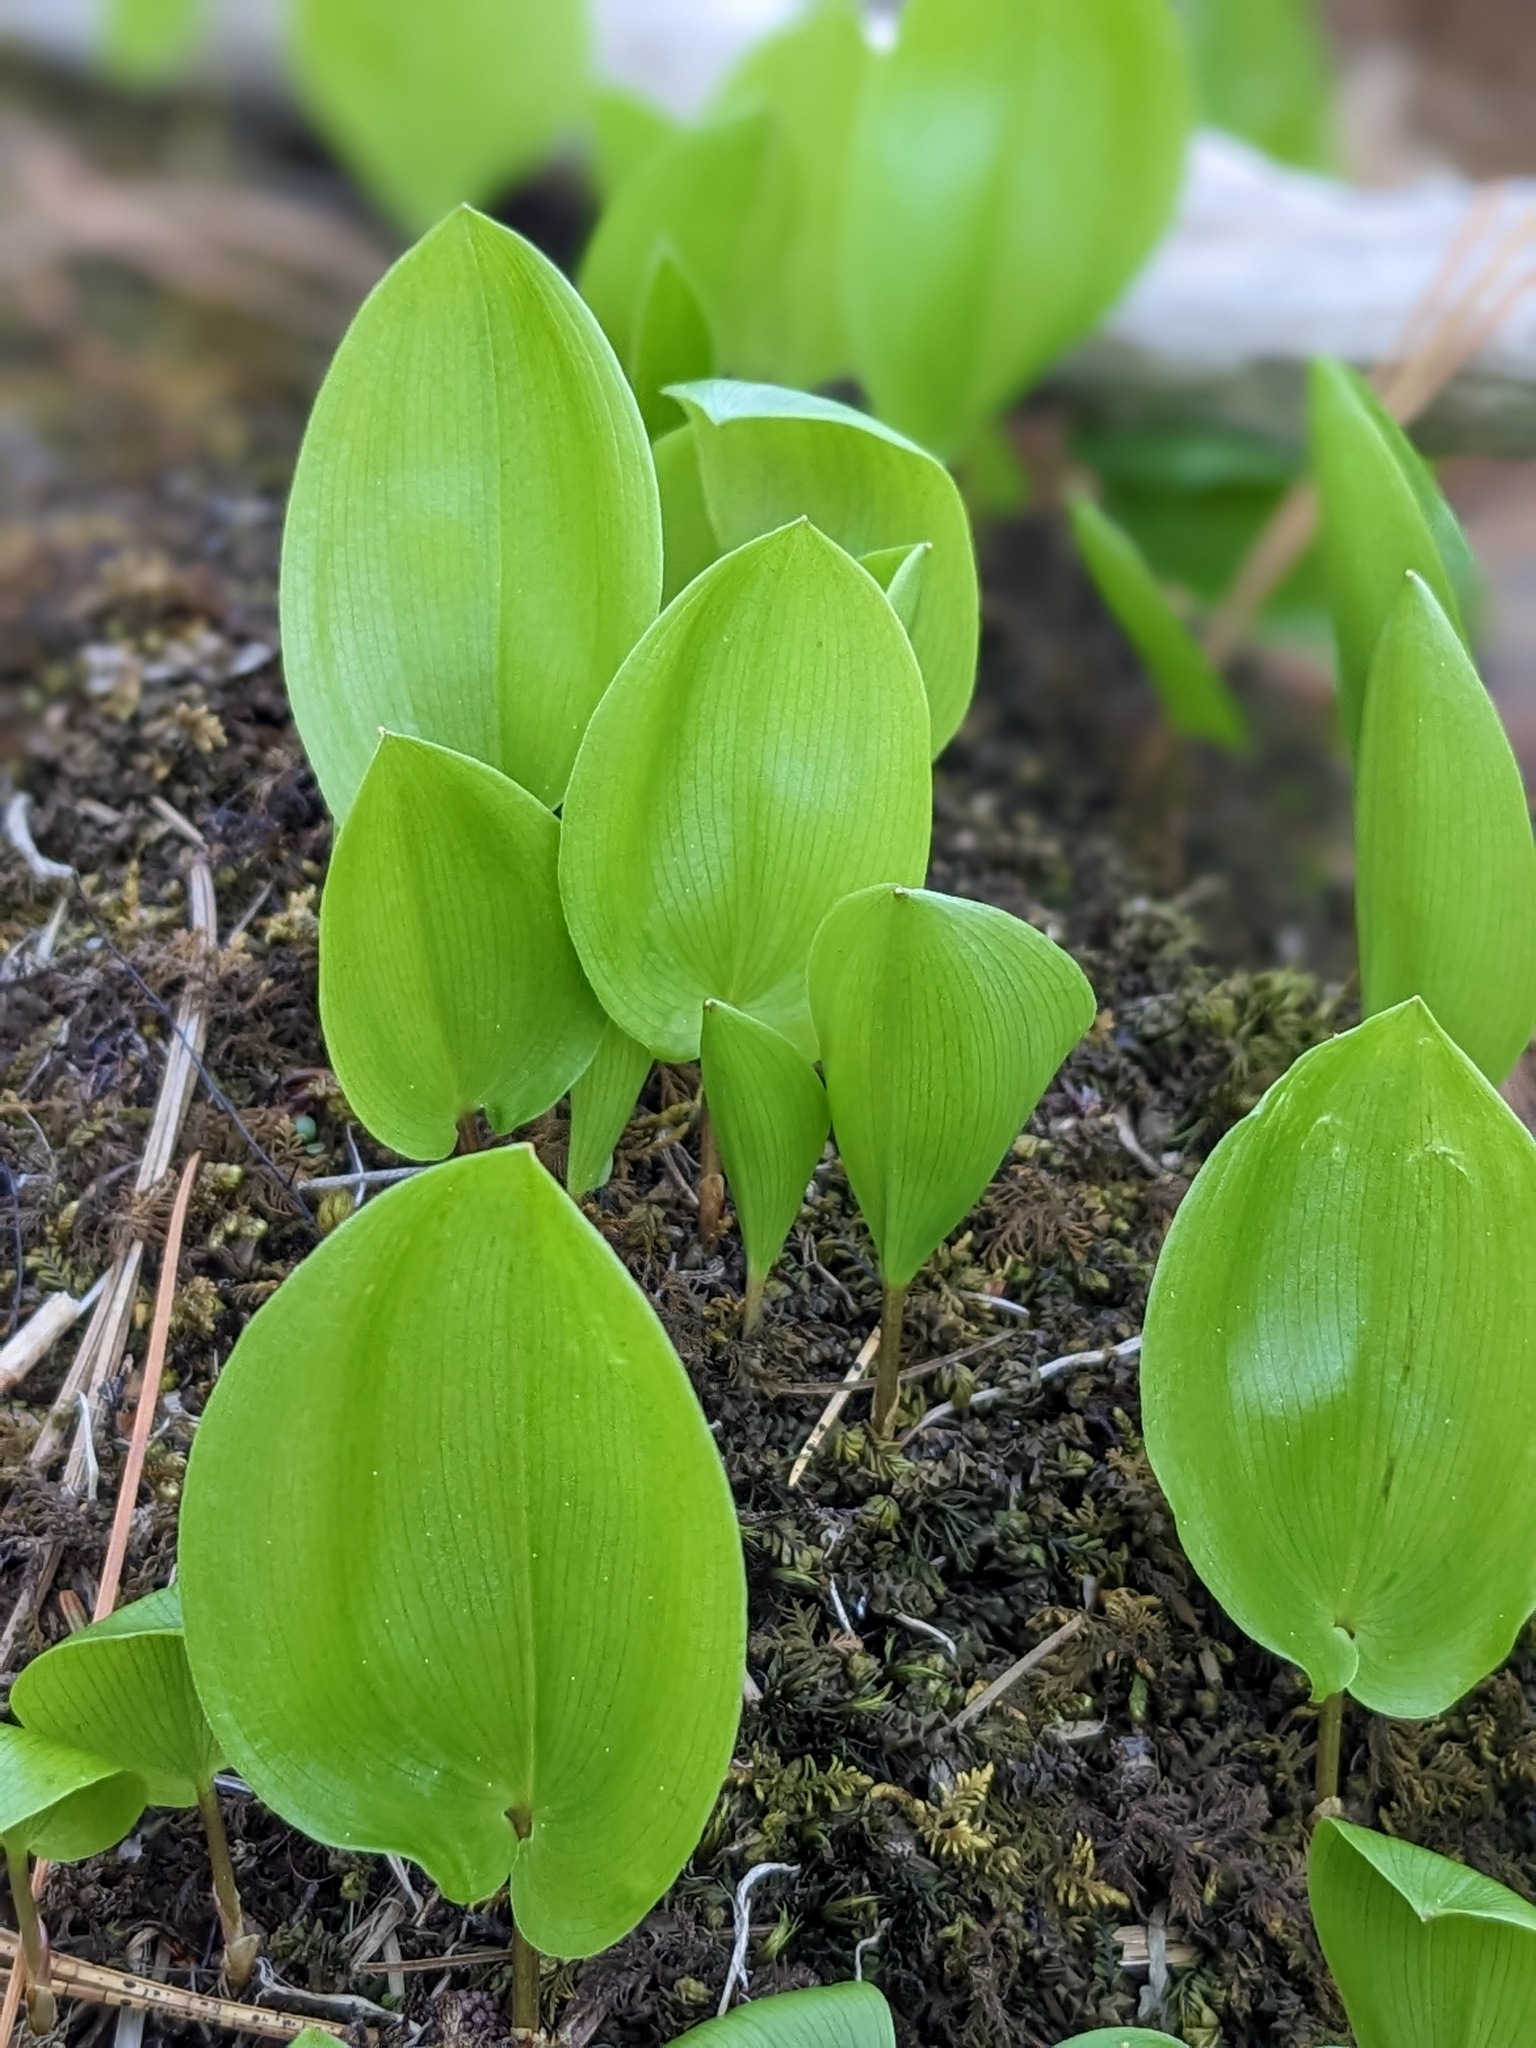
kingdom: Plantae
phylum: Tracheophyta
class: Liliopsida
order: Asparagales
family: Asparagaceae
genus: Maianthemum
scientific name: Maianthemum canadense
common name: False lily-of-the-valley
